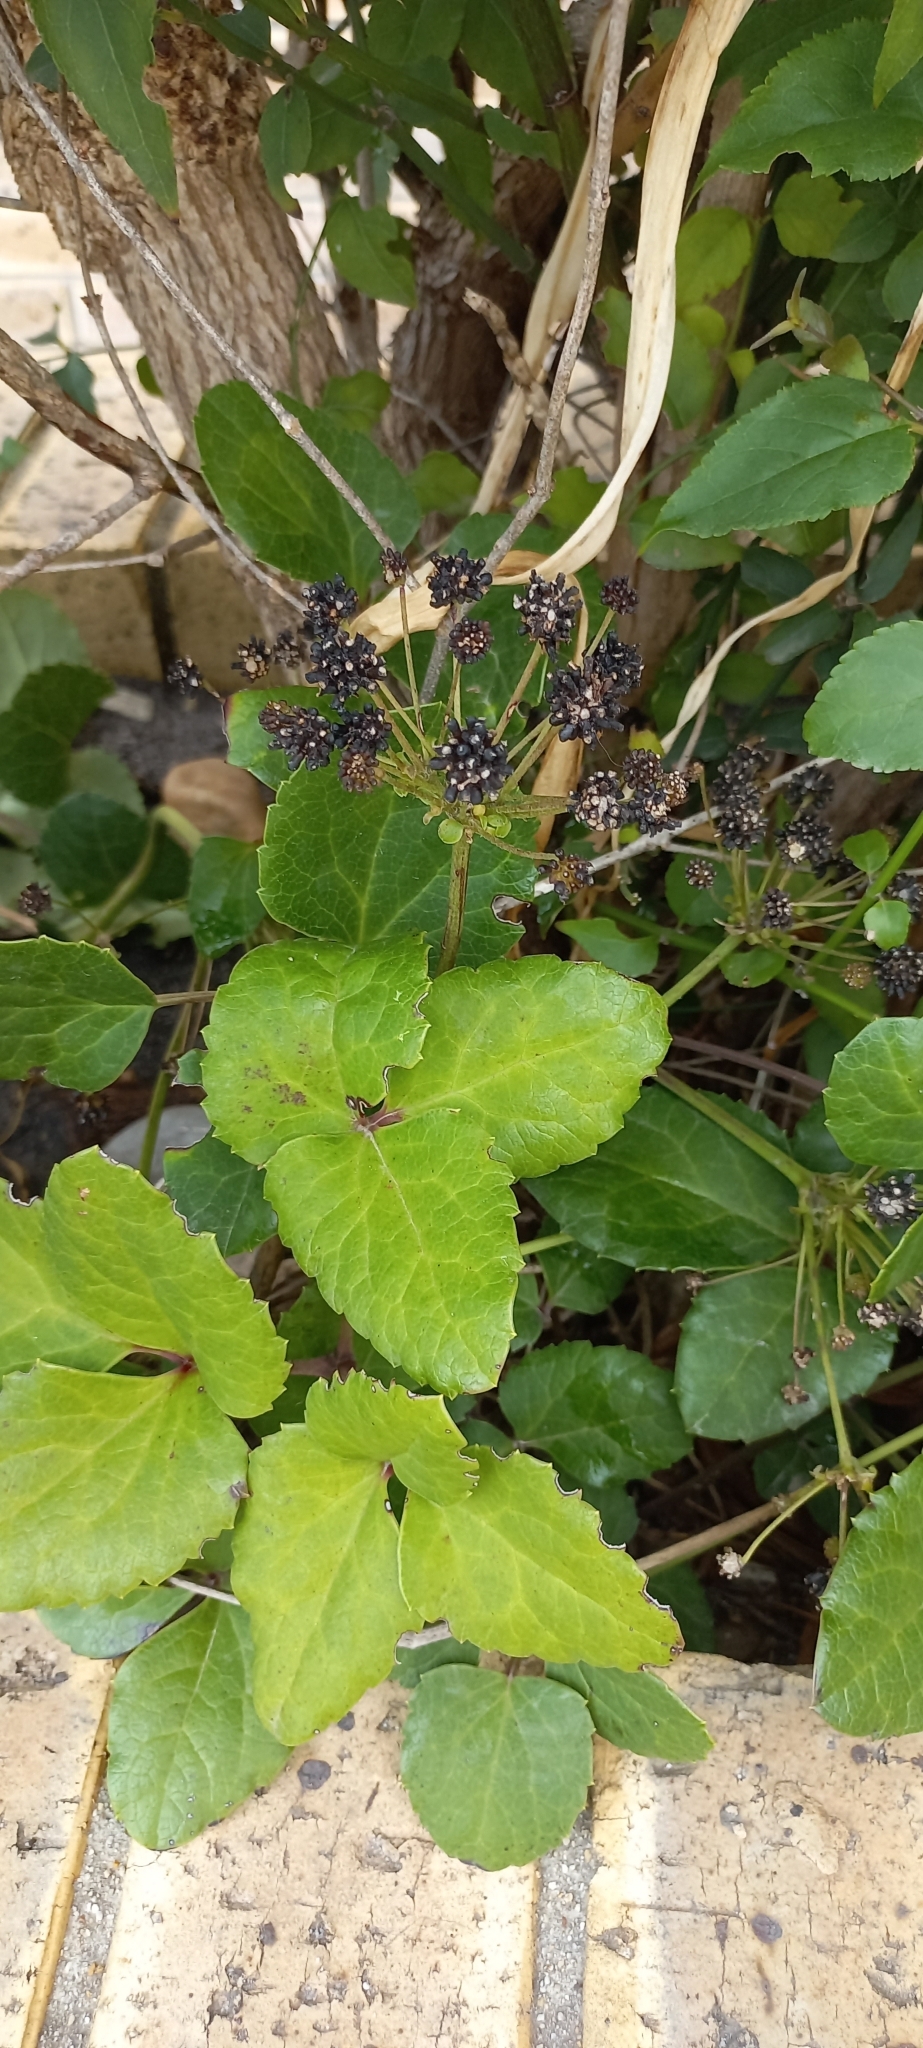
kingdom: Plantae
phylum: Tracheophyta
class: Magnoliopsida
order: Ranunculales
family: Ranunculaceae
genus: Knowltonia
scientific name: Knowltonia vesicatoria
